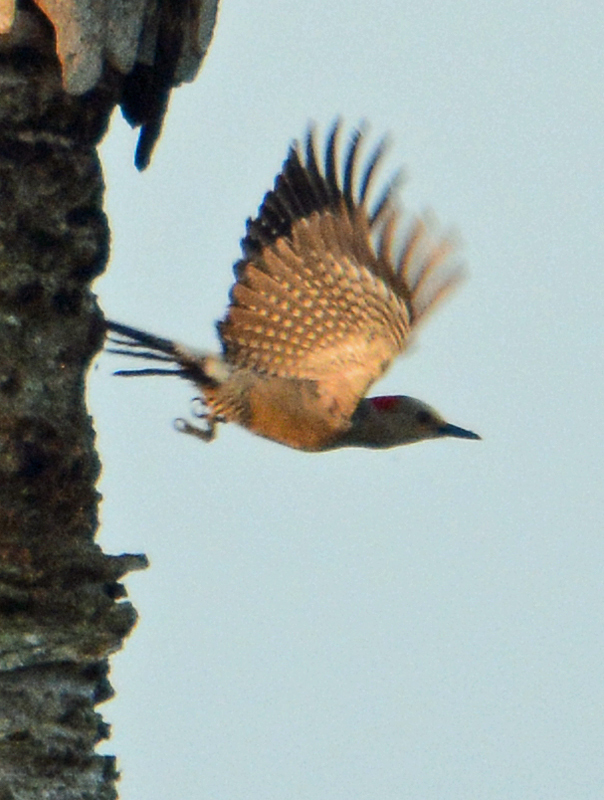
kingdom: Animalia
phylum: Chordata
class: Aves
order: Piciformes
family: Picidae
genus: Melanerpes
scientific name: Melanerpes aurifrons
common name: Golden-fronted woodpecker
